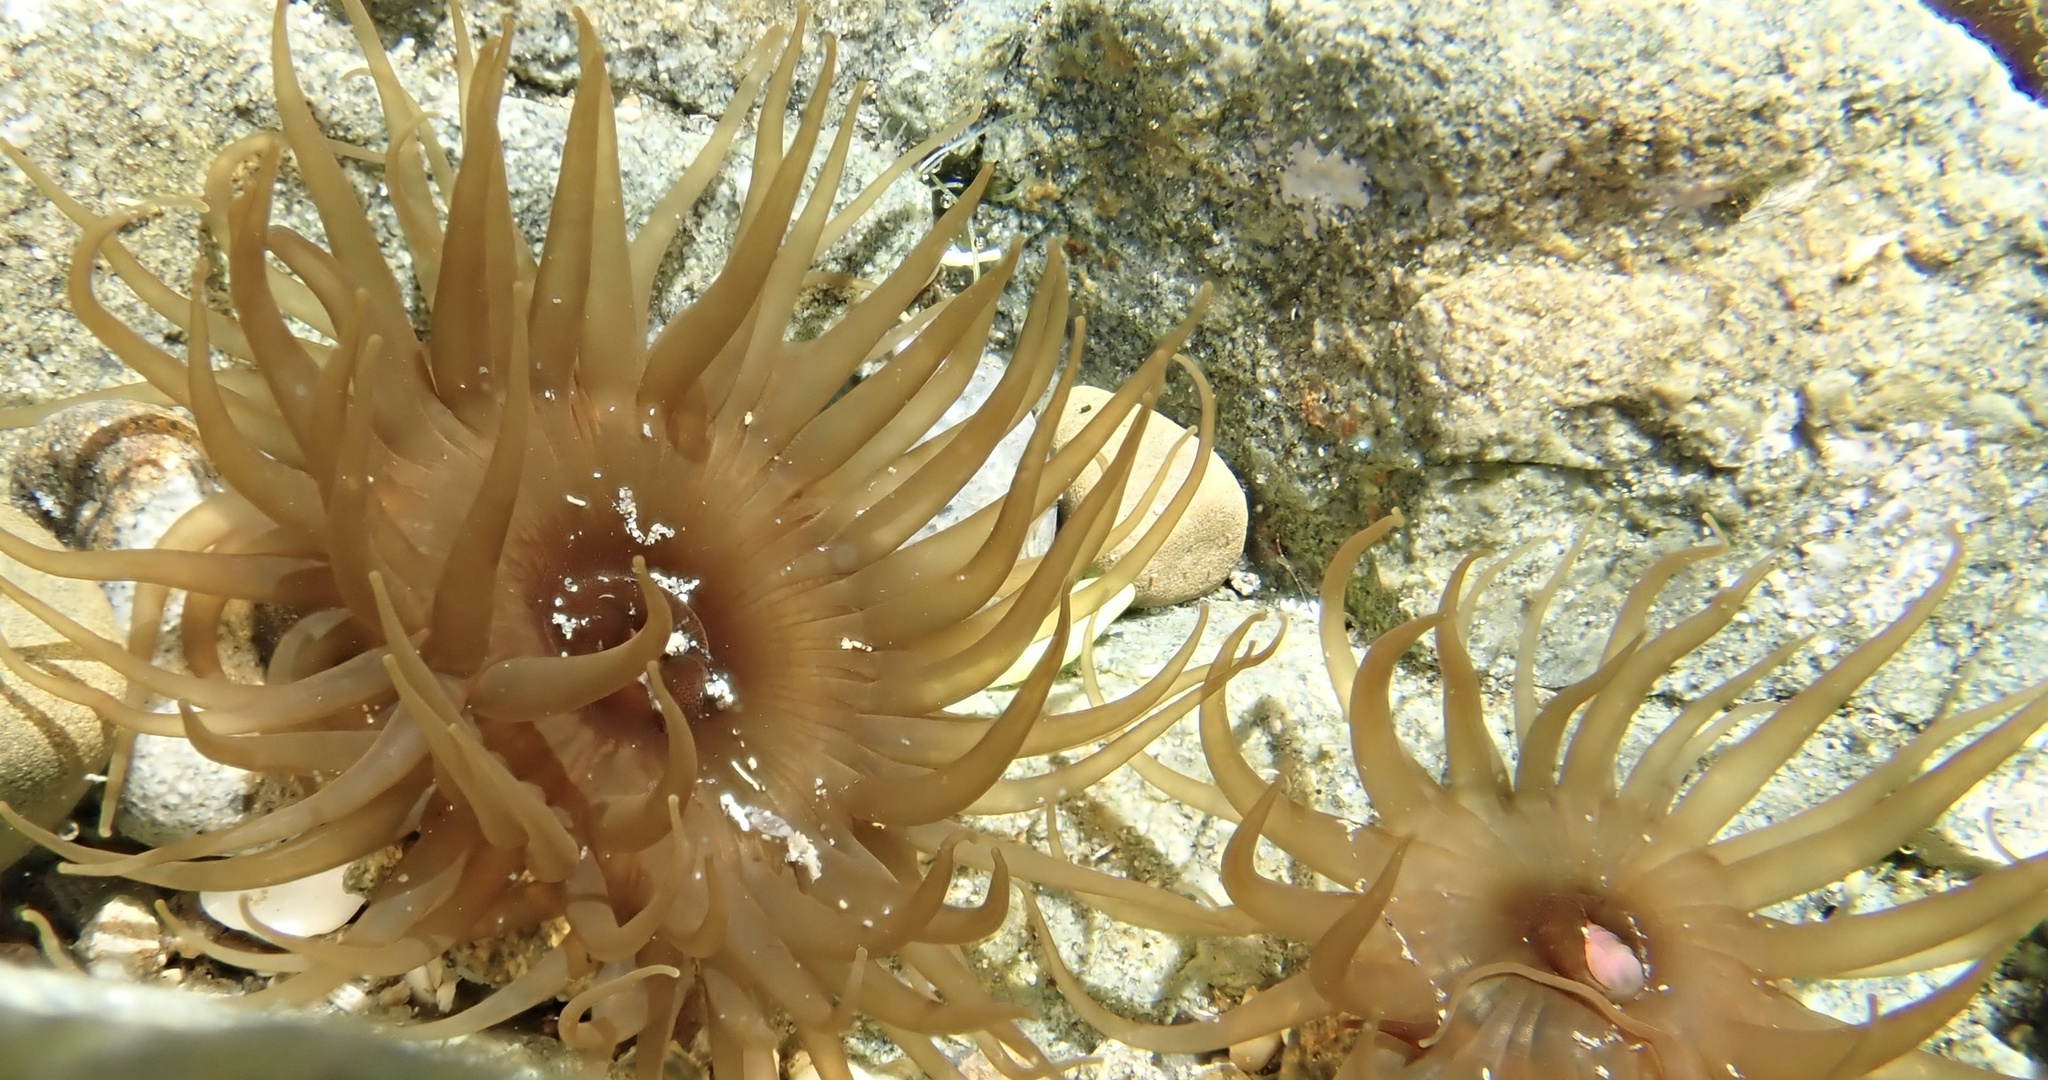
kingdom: Animalia
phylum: Cnidaria
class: Anthozoa
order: Actiniaria
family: Actiniidae
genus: Isactinia
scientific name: Isactinia olivacea
